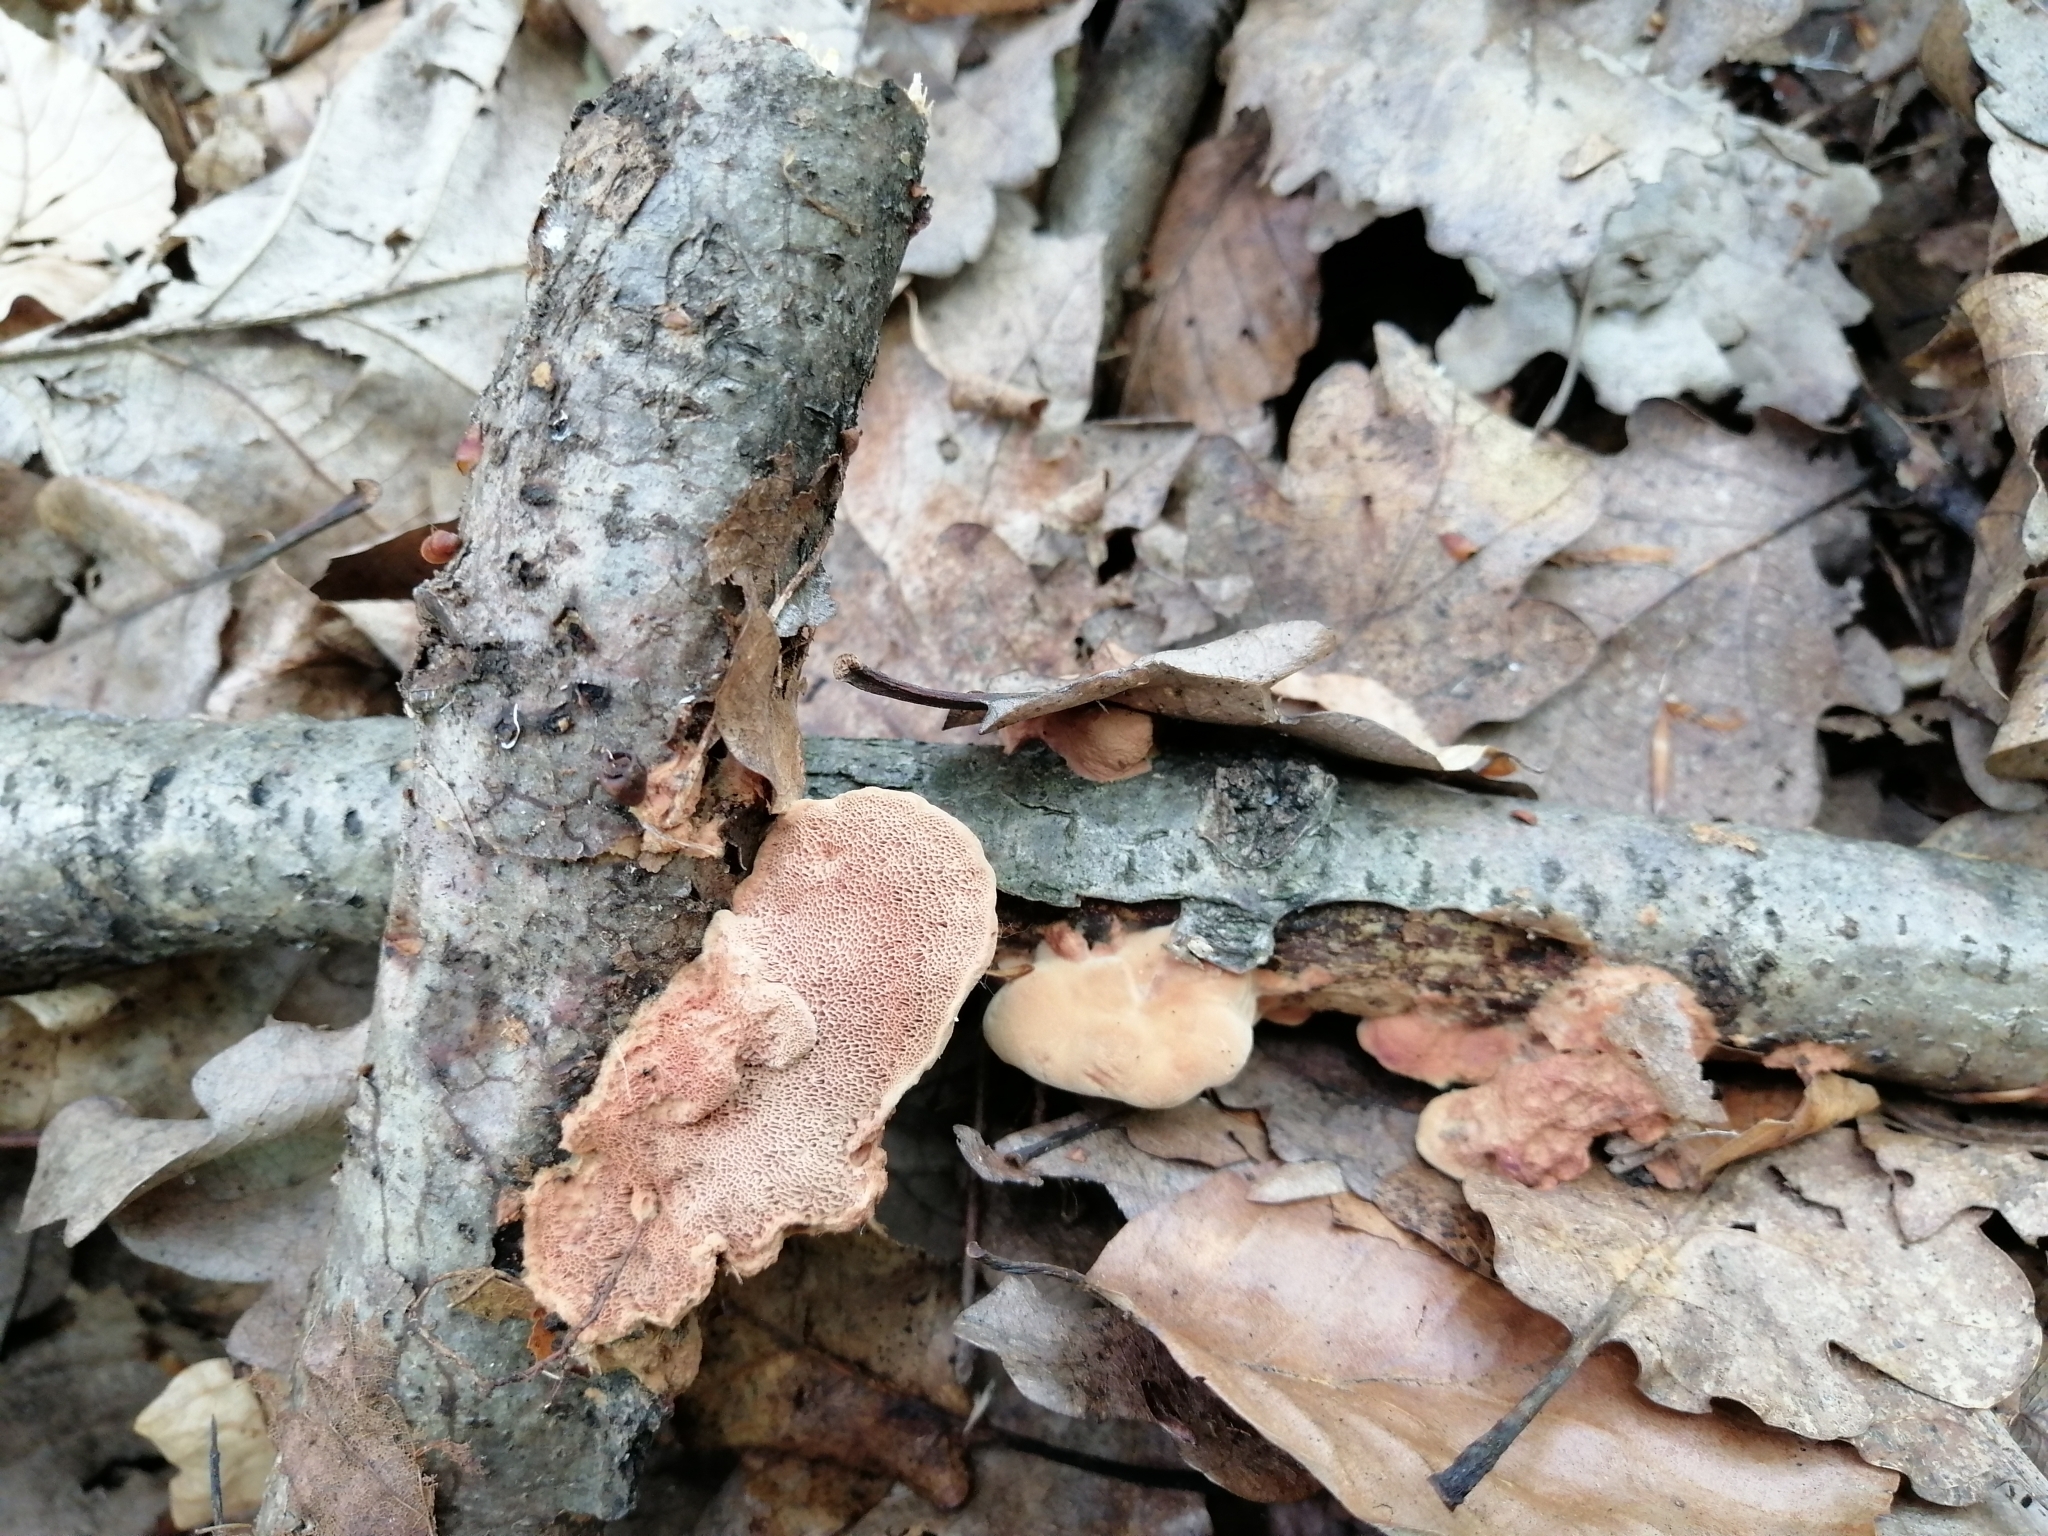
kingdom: Fungi
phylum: Basidiomycota
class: Agaricomycetes
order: Polyporales
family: Phanerochaetaceae
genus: Hapalopilus
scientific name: Hapalopilus rutilans
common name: Tender nesting polypore
